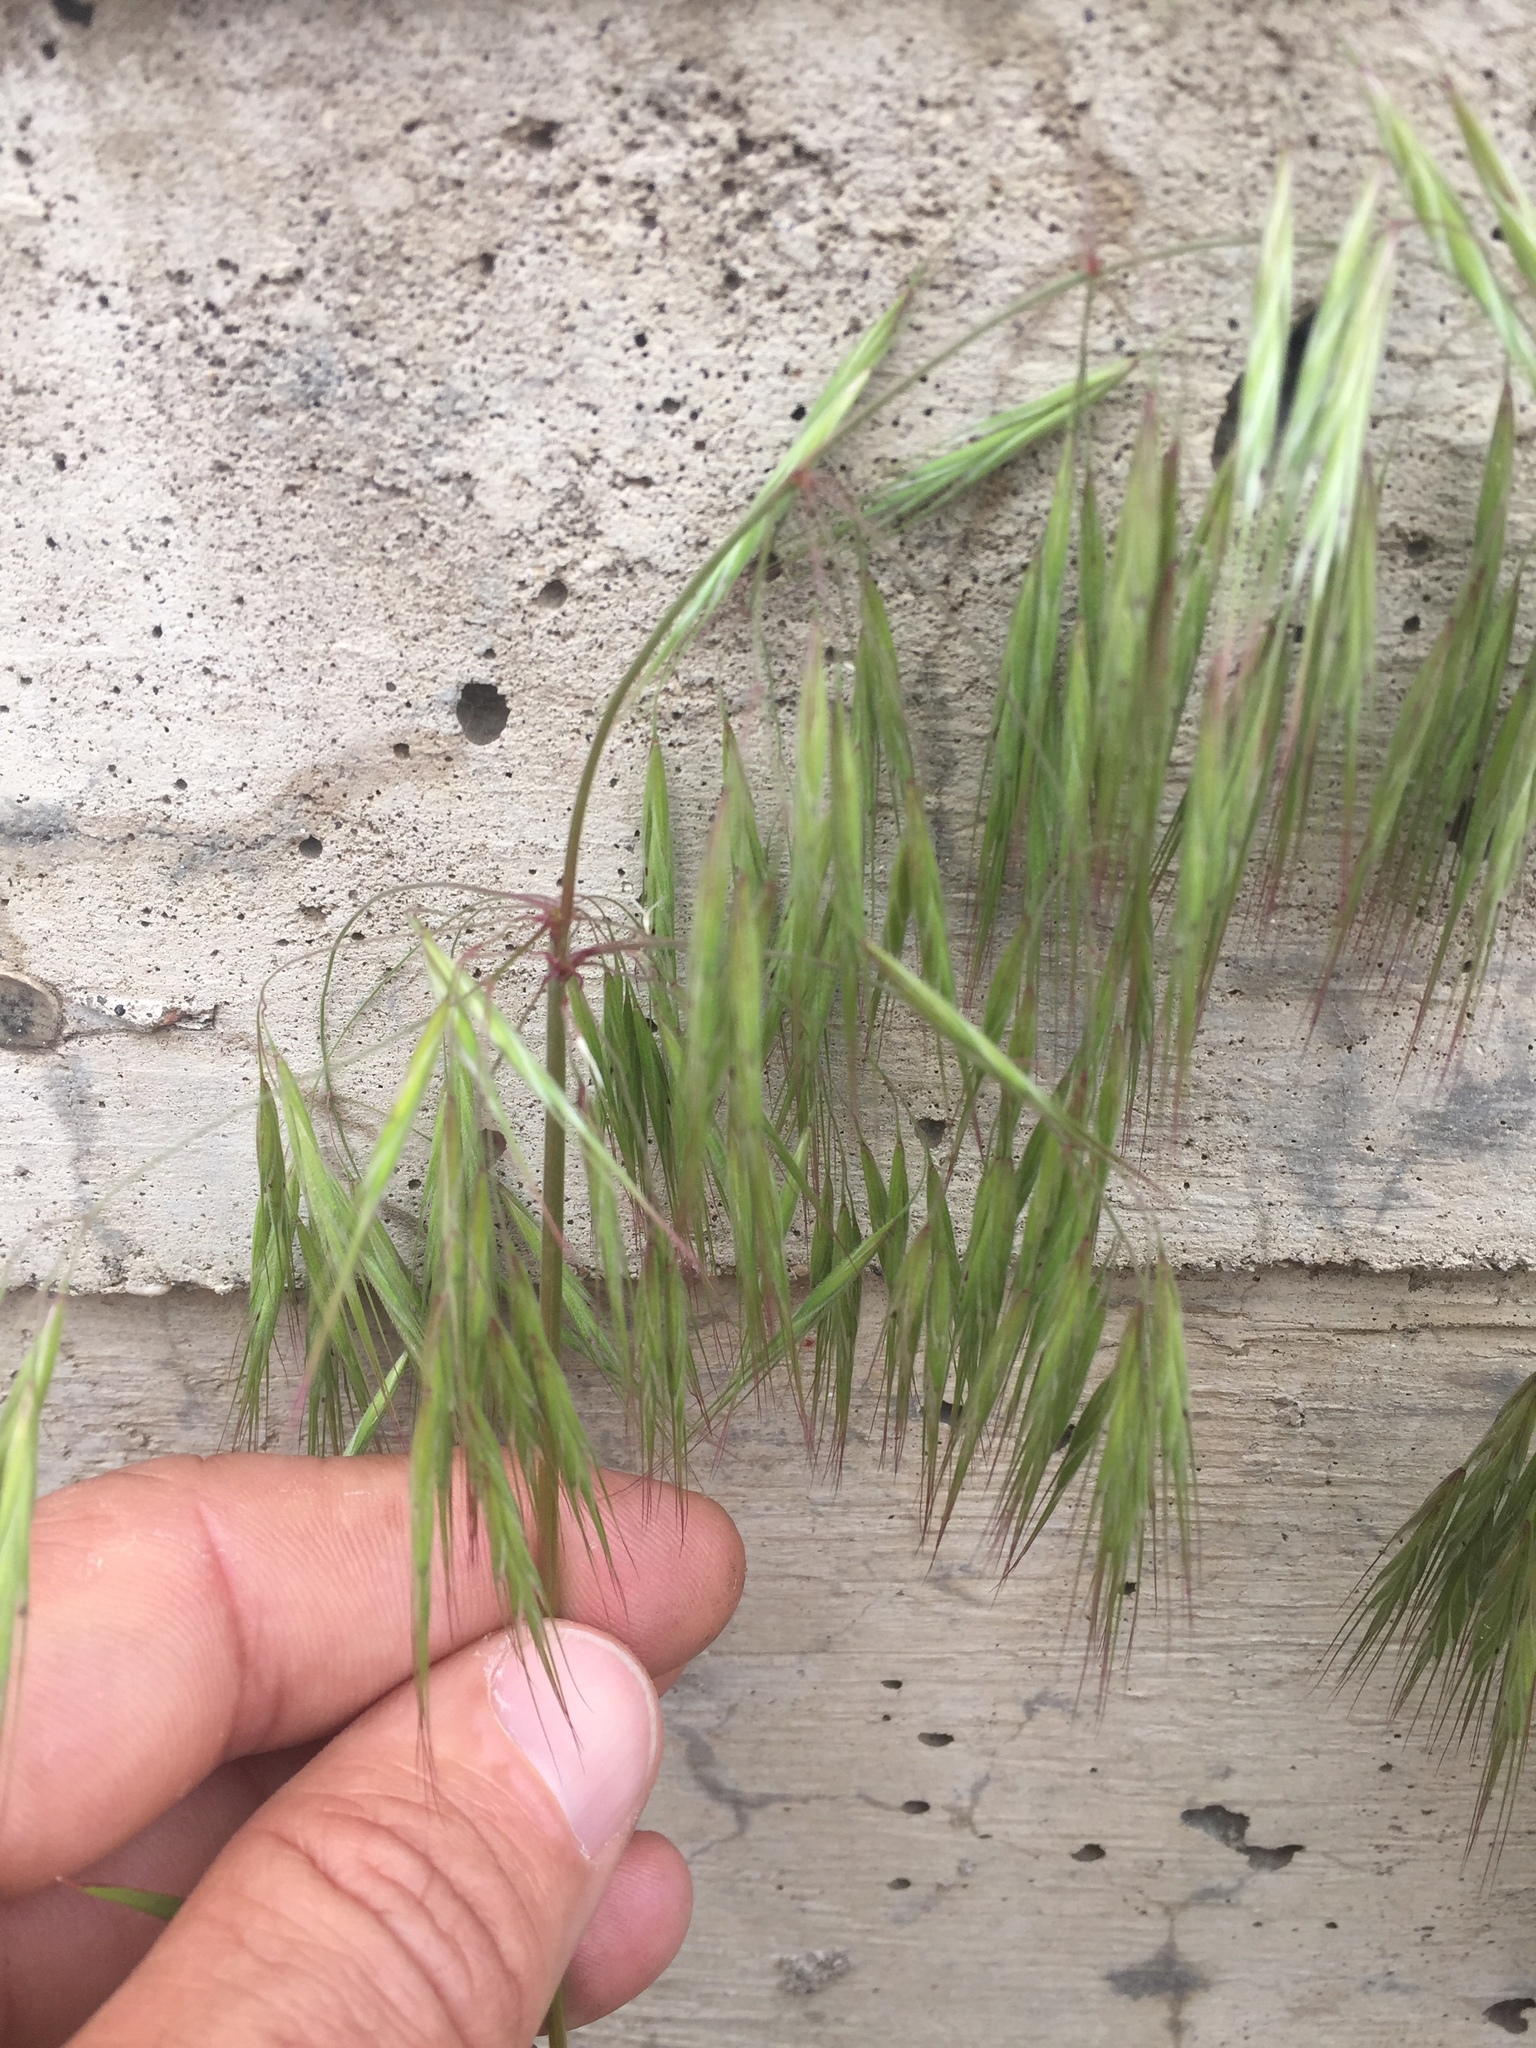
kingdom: Plantae
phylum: Tracheophyta
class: Liliopsida
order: Poales
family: Poaceae
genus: Bromus
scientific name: Bromus tectorum
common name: Cheatgrass
